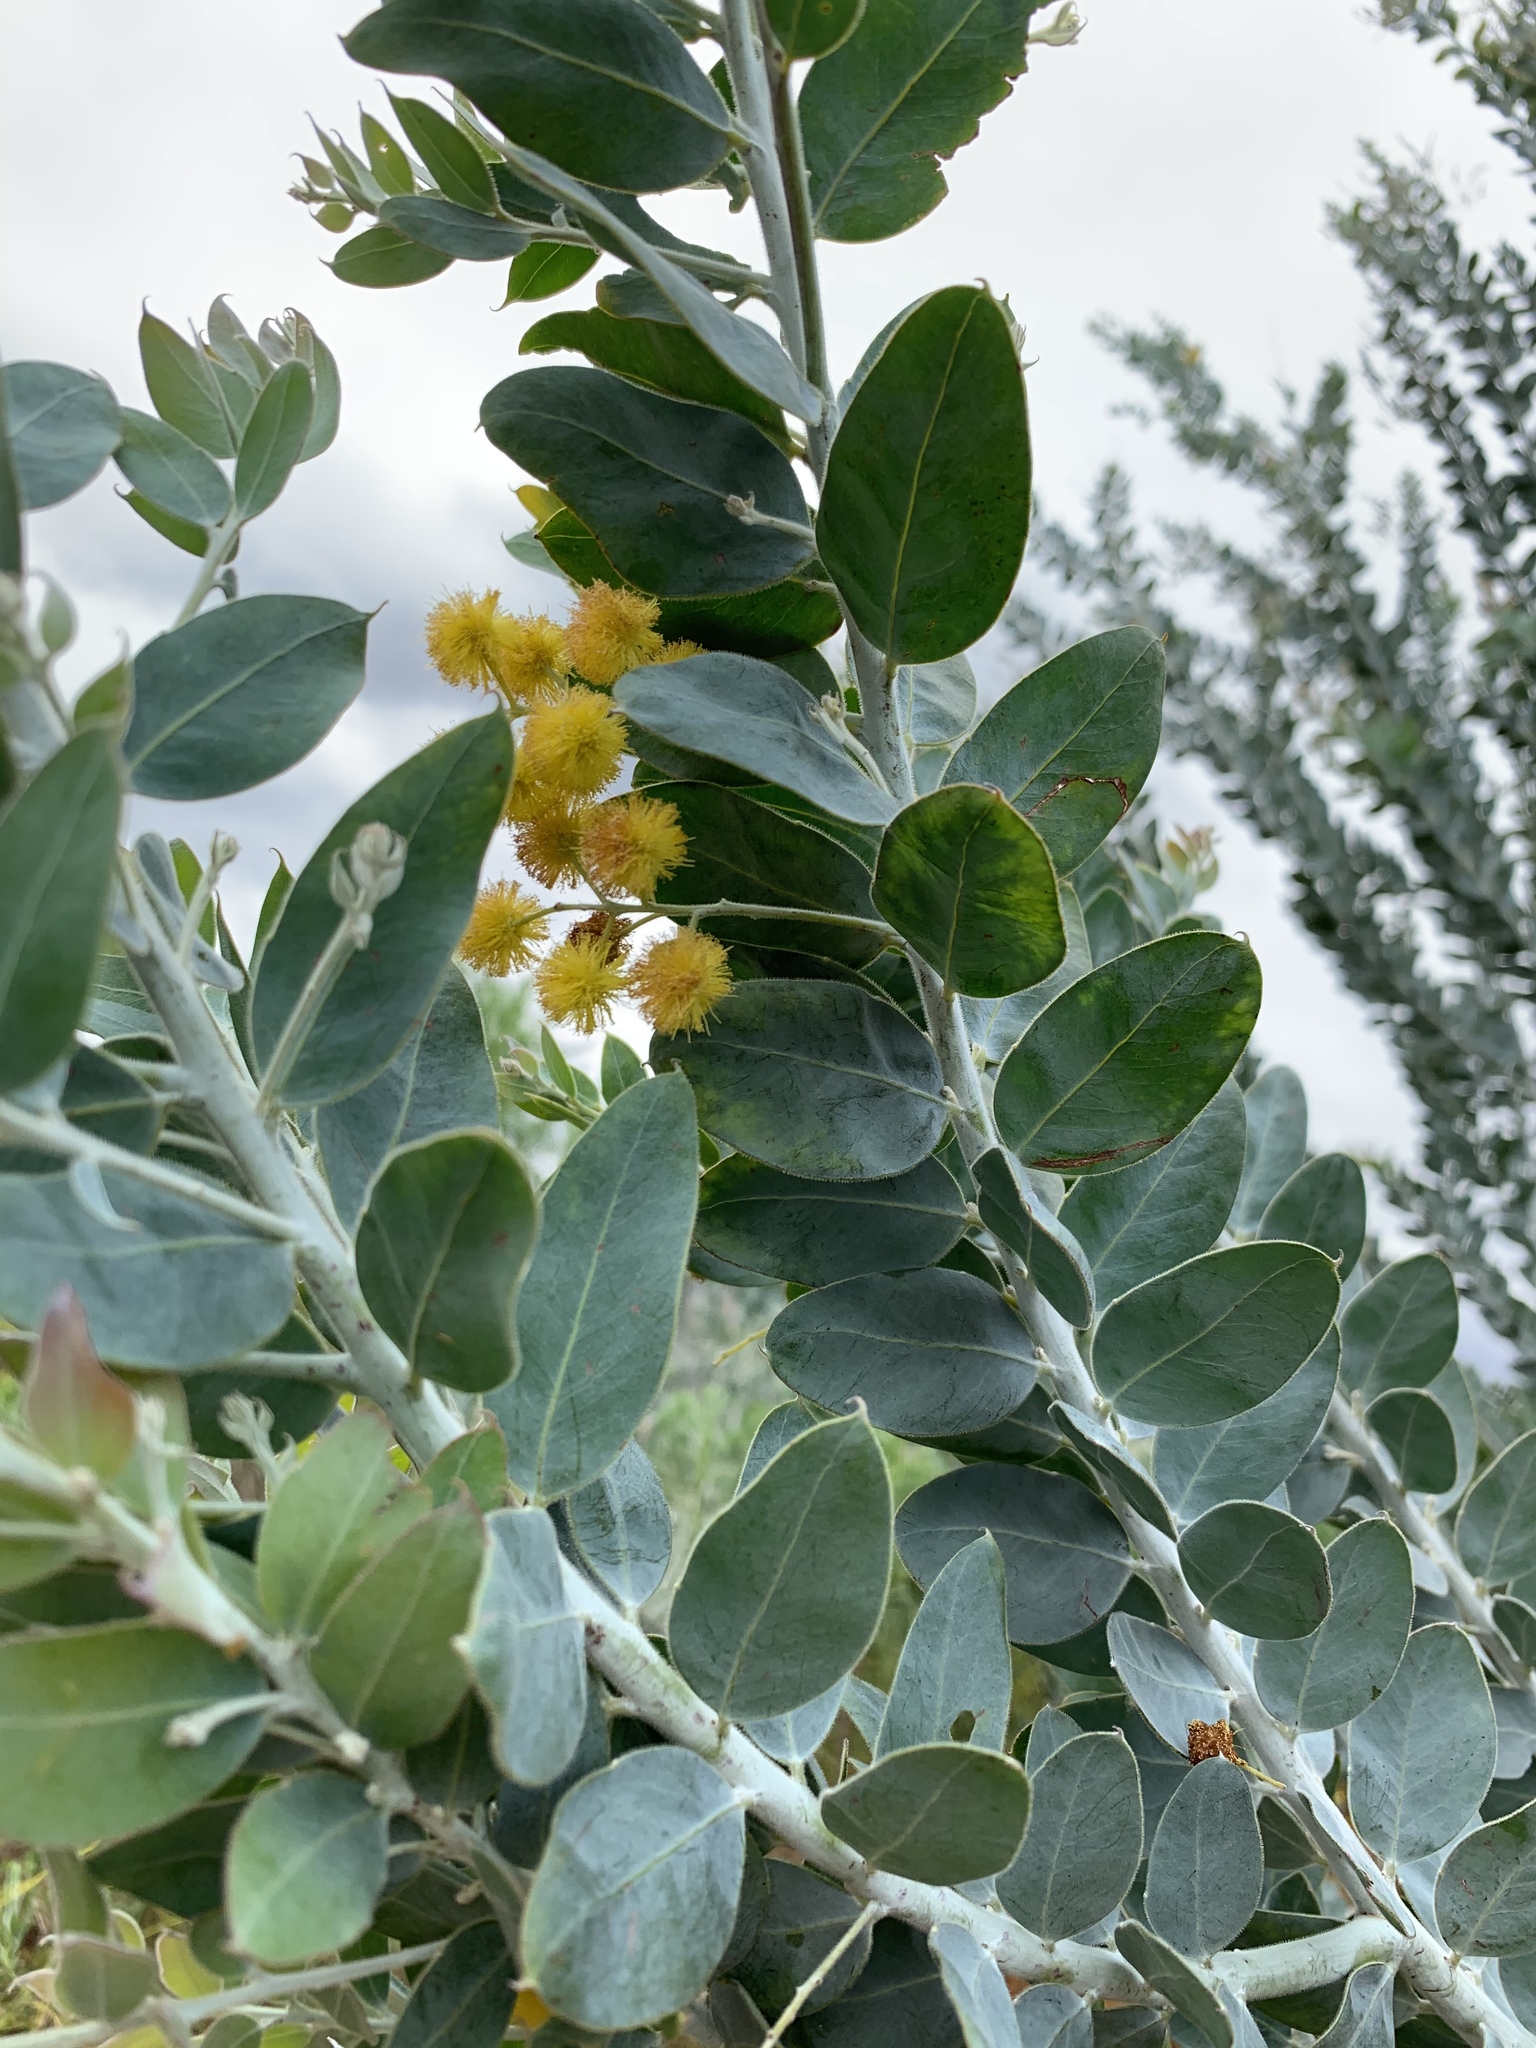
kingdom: Plantae
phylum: Tracheophyta
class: Magnoliopsida
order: Fabales
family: Fabaceae
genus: Acacia
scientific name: Acacia podalyriifolia
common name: Pearl wattle
